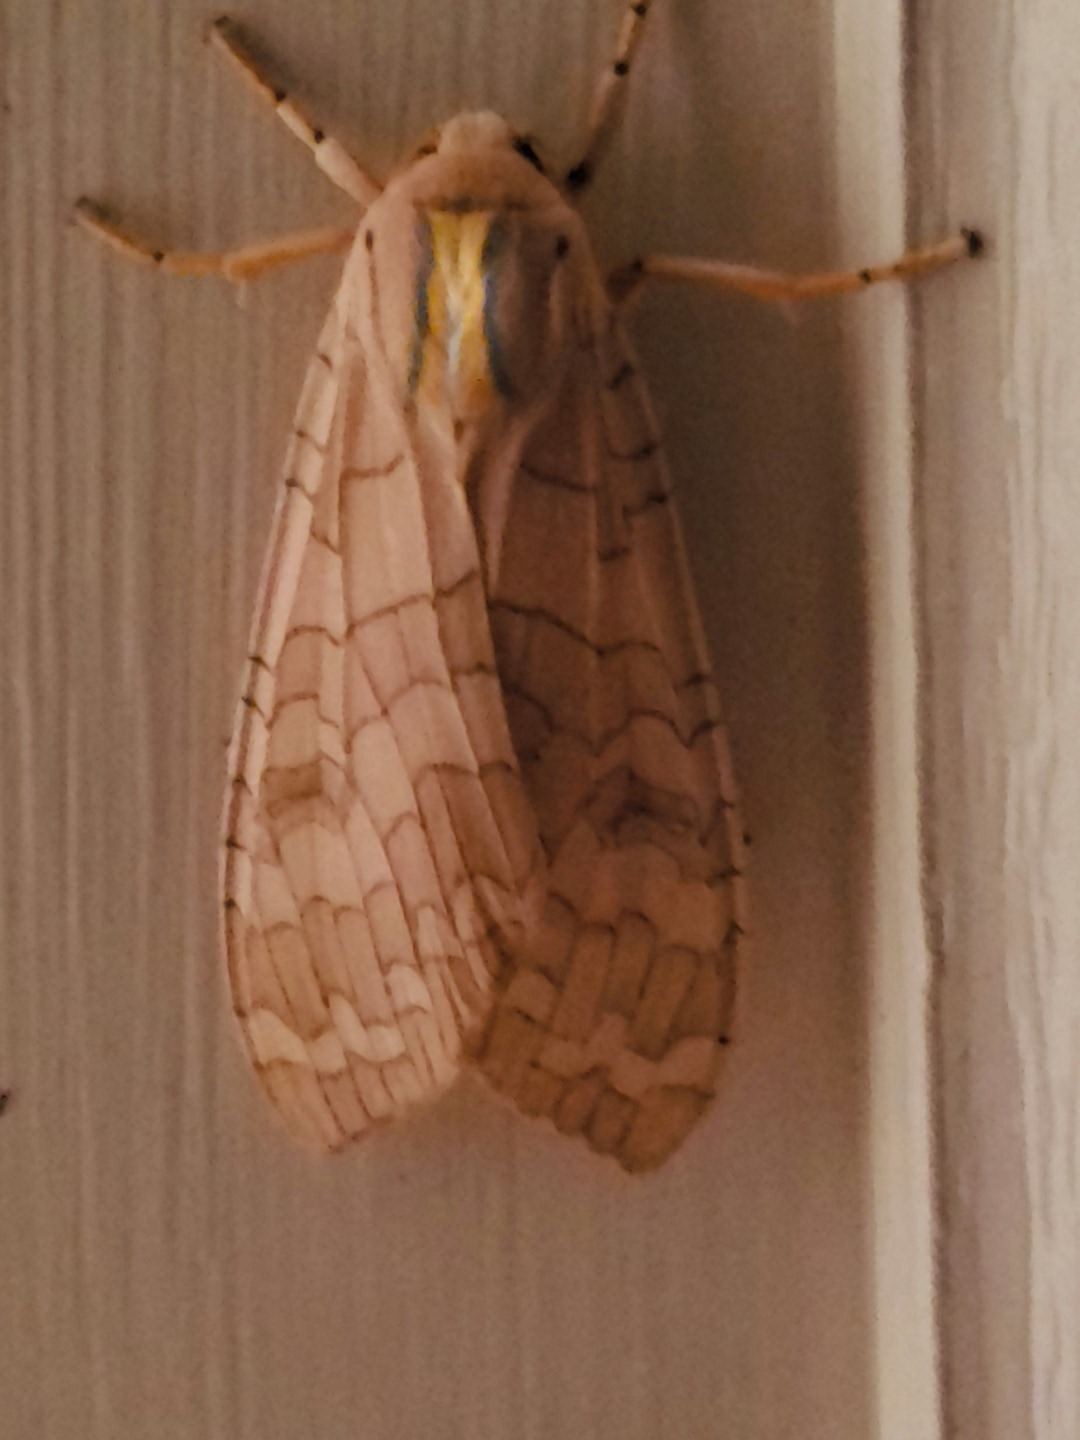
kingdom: Animalia
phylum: Arthropoda
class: Insecta
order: Lepidoptera
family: Erebidae
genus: Halysidota
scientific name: Halysidota
